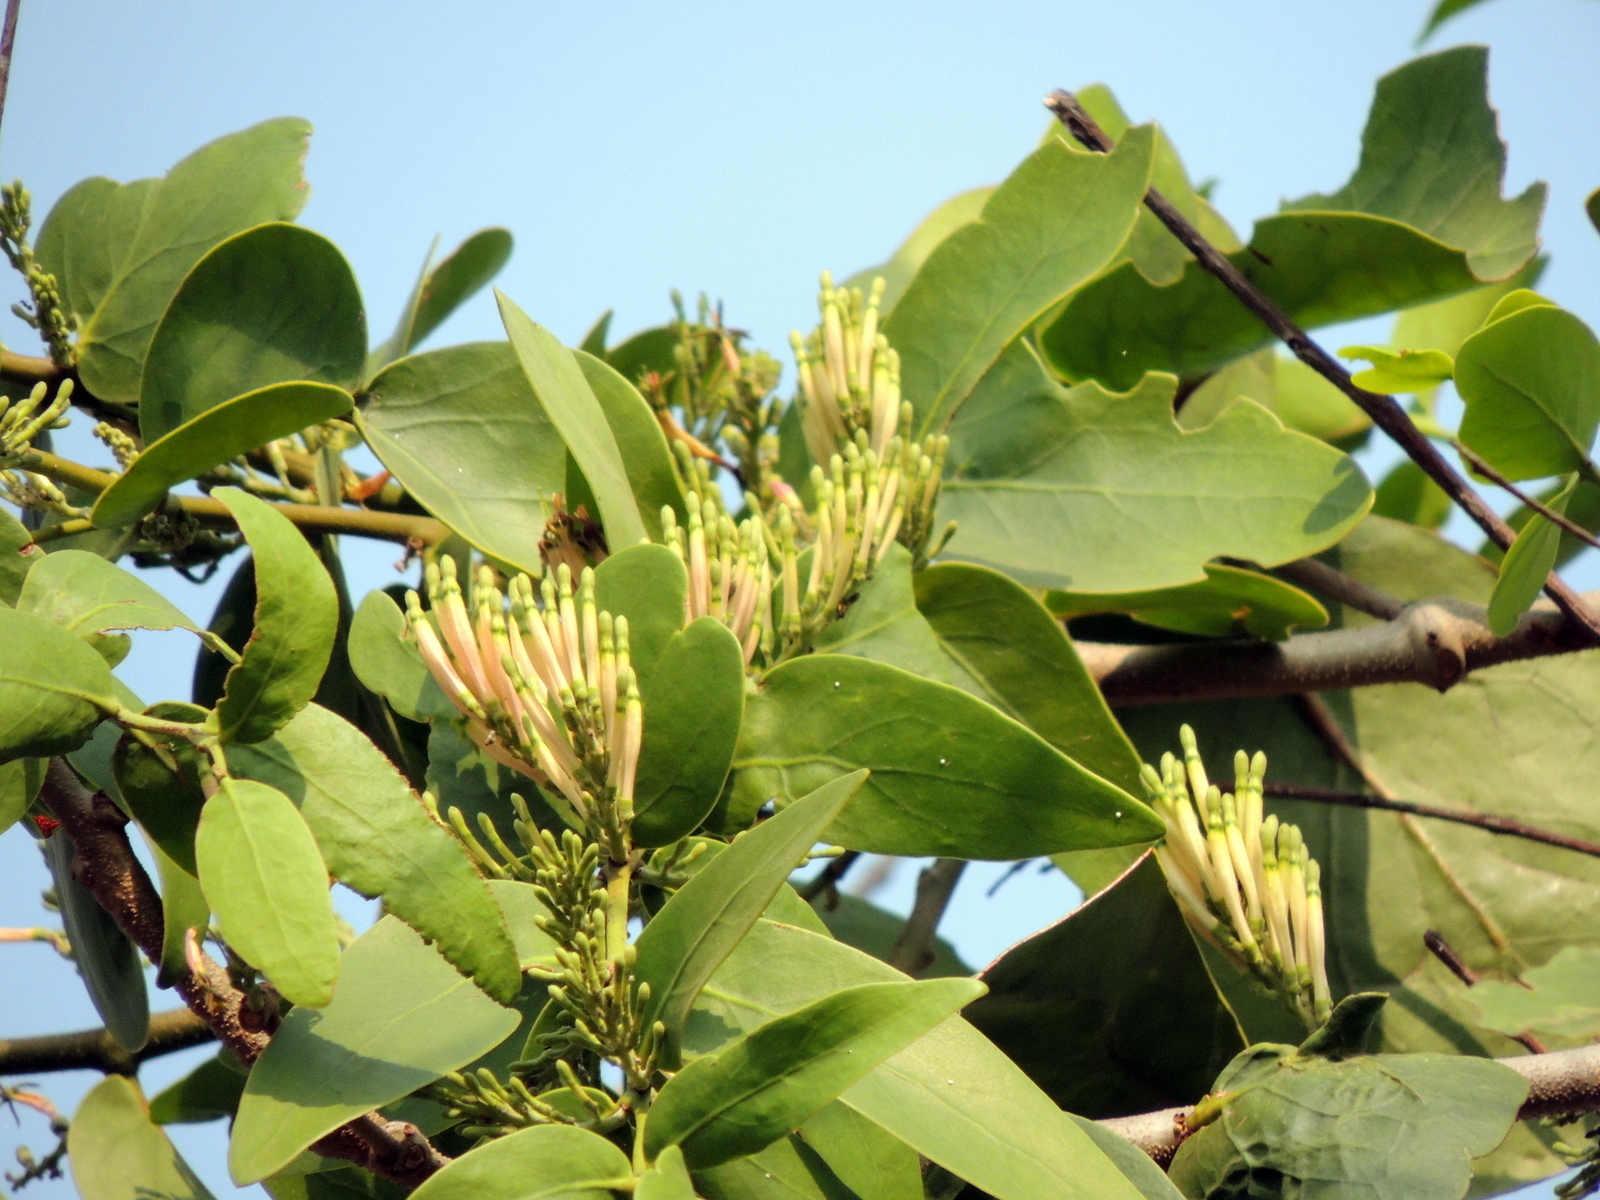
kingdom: Plantae
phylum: Tracheophyta
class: Magnoliopsida
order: Santalales
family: Loranthaceae
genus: Dendrophthoe
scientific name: Dendrophthoe falcata
